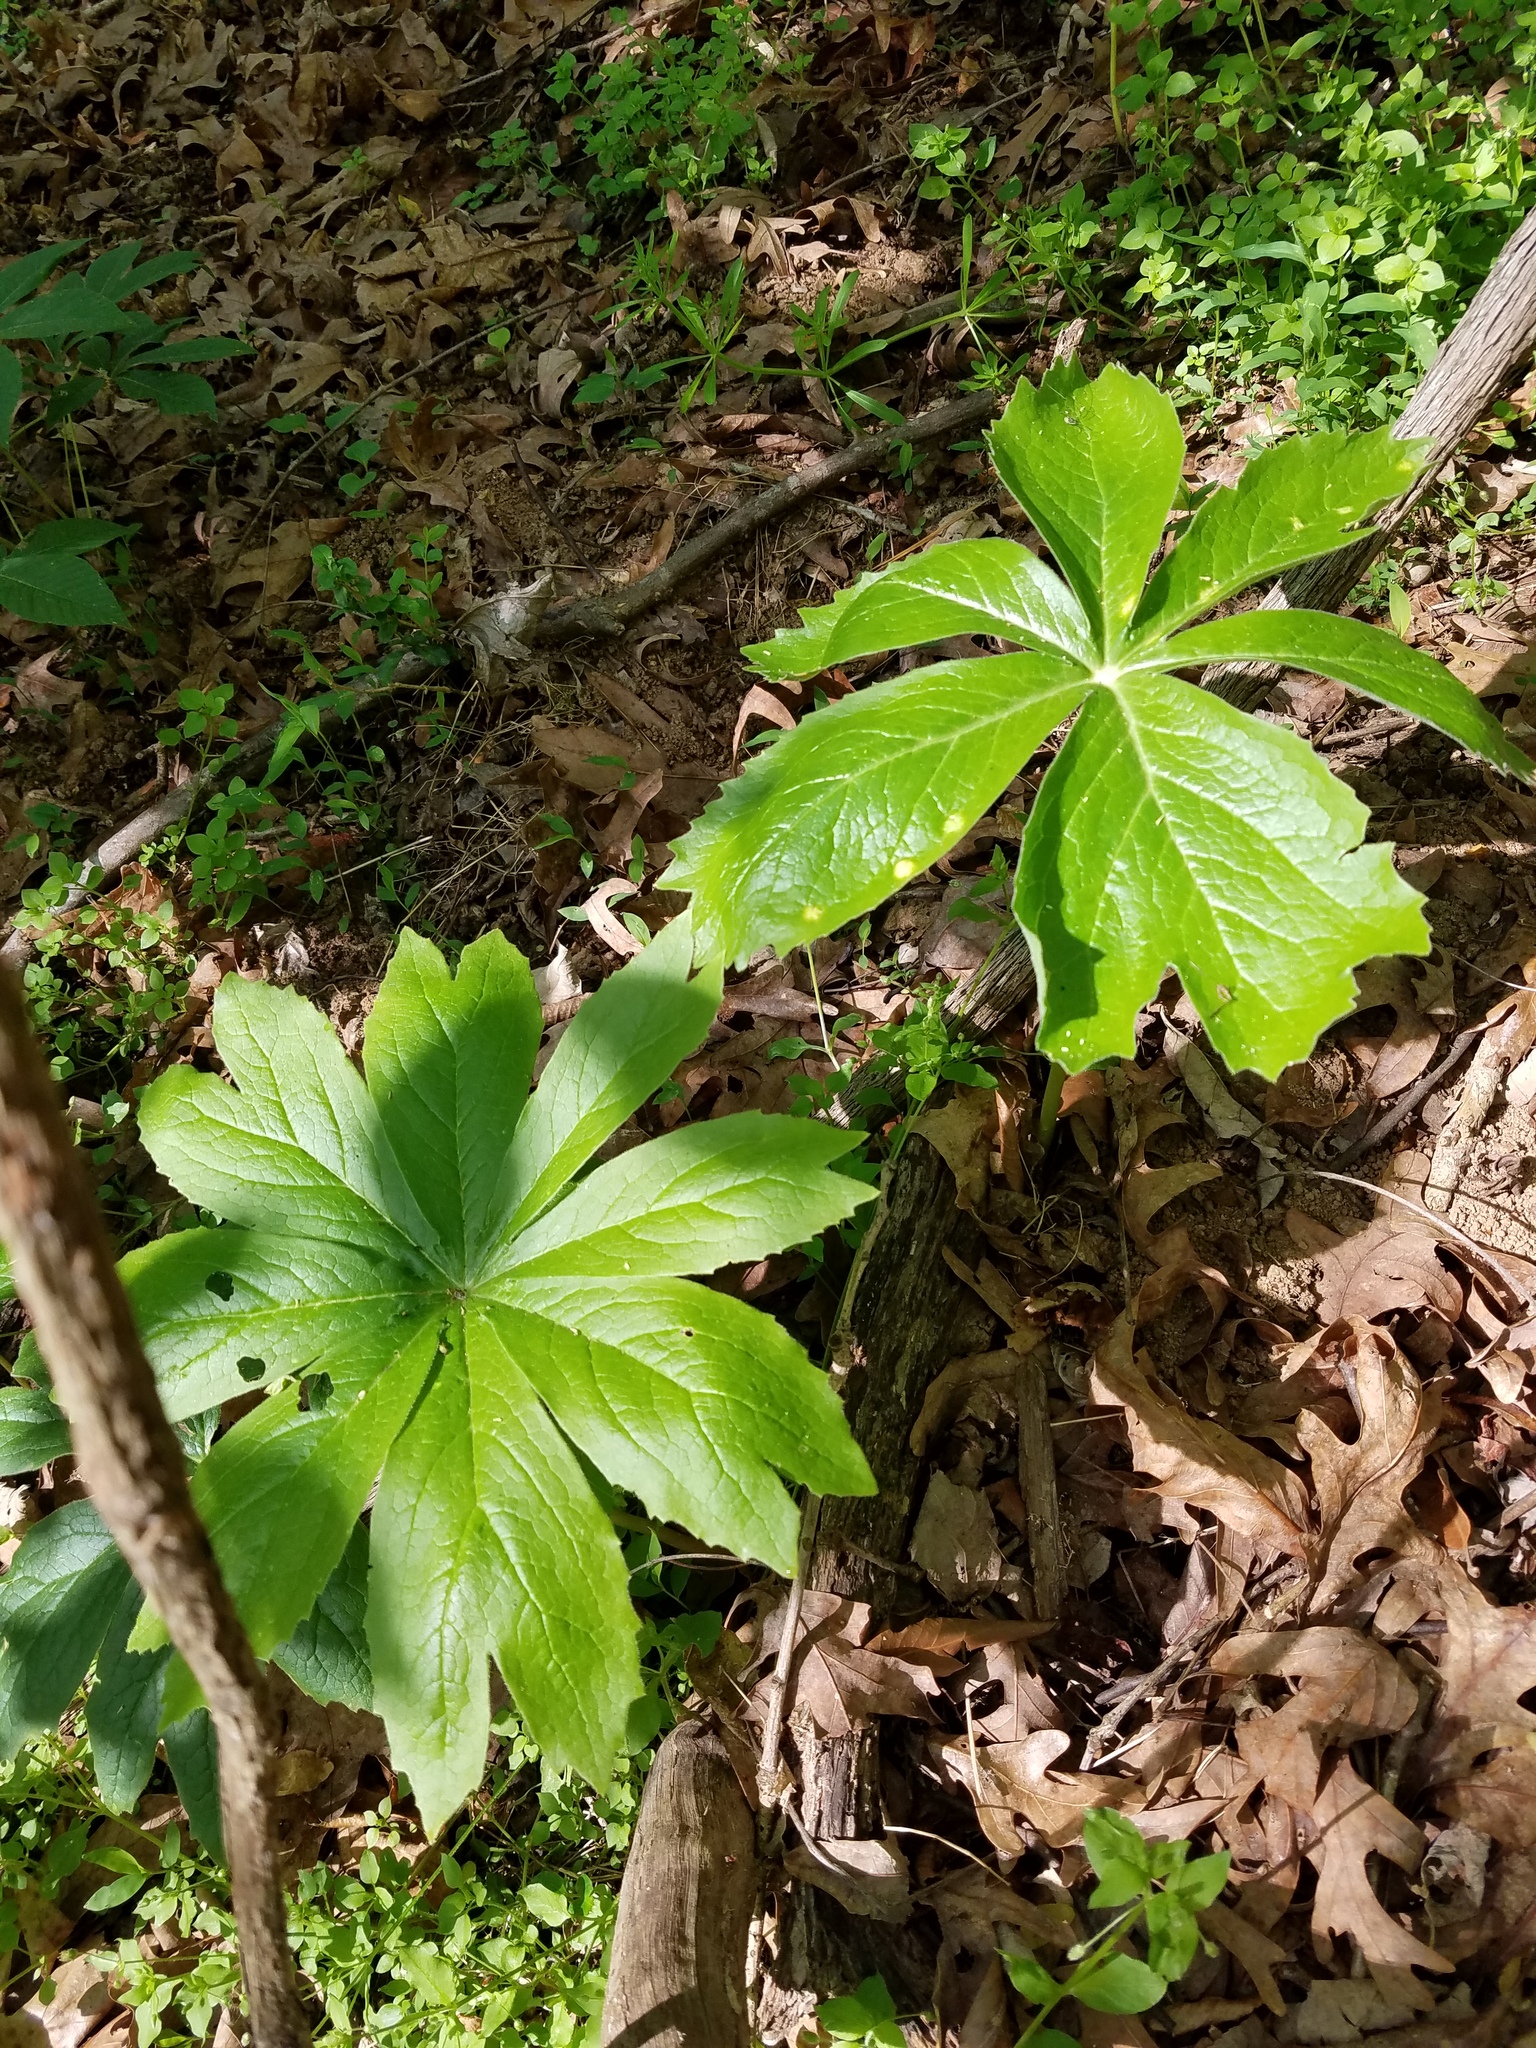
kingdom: Plantae
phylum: Tracheophyta
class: Magnoliopsida
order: Ranunculales
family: Berberidaceae
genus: Podophyllum
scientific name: Podophyllum peltatum
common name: Wild mandrake
